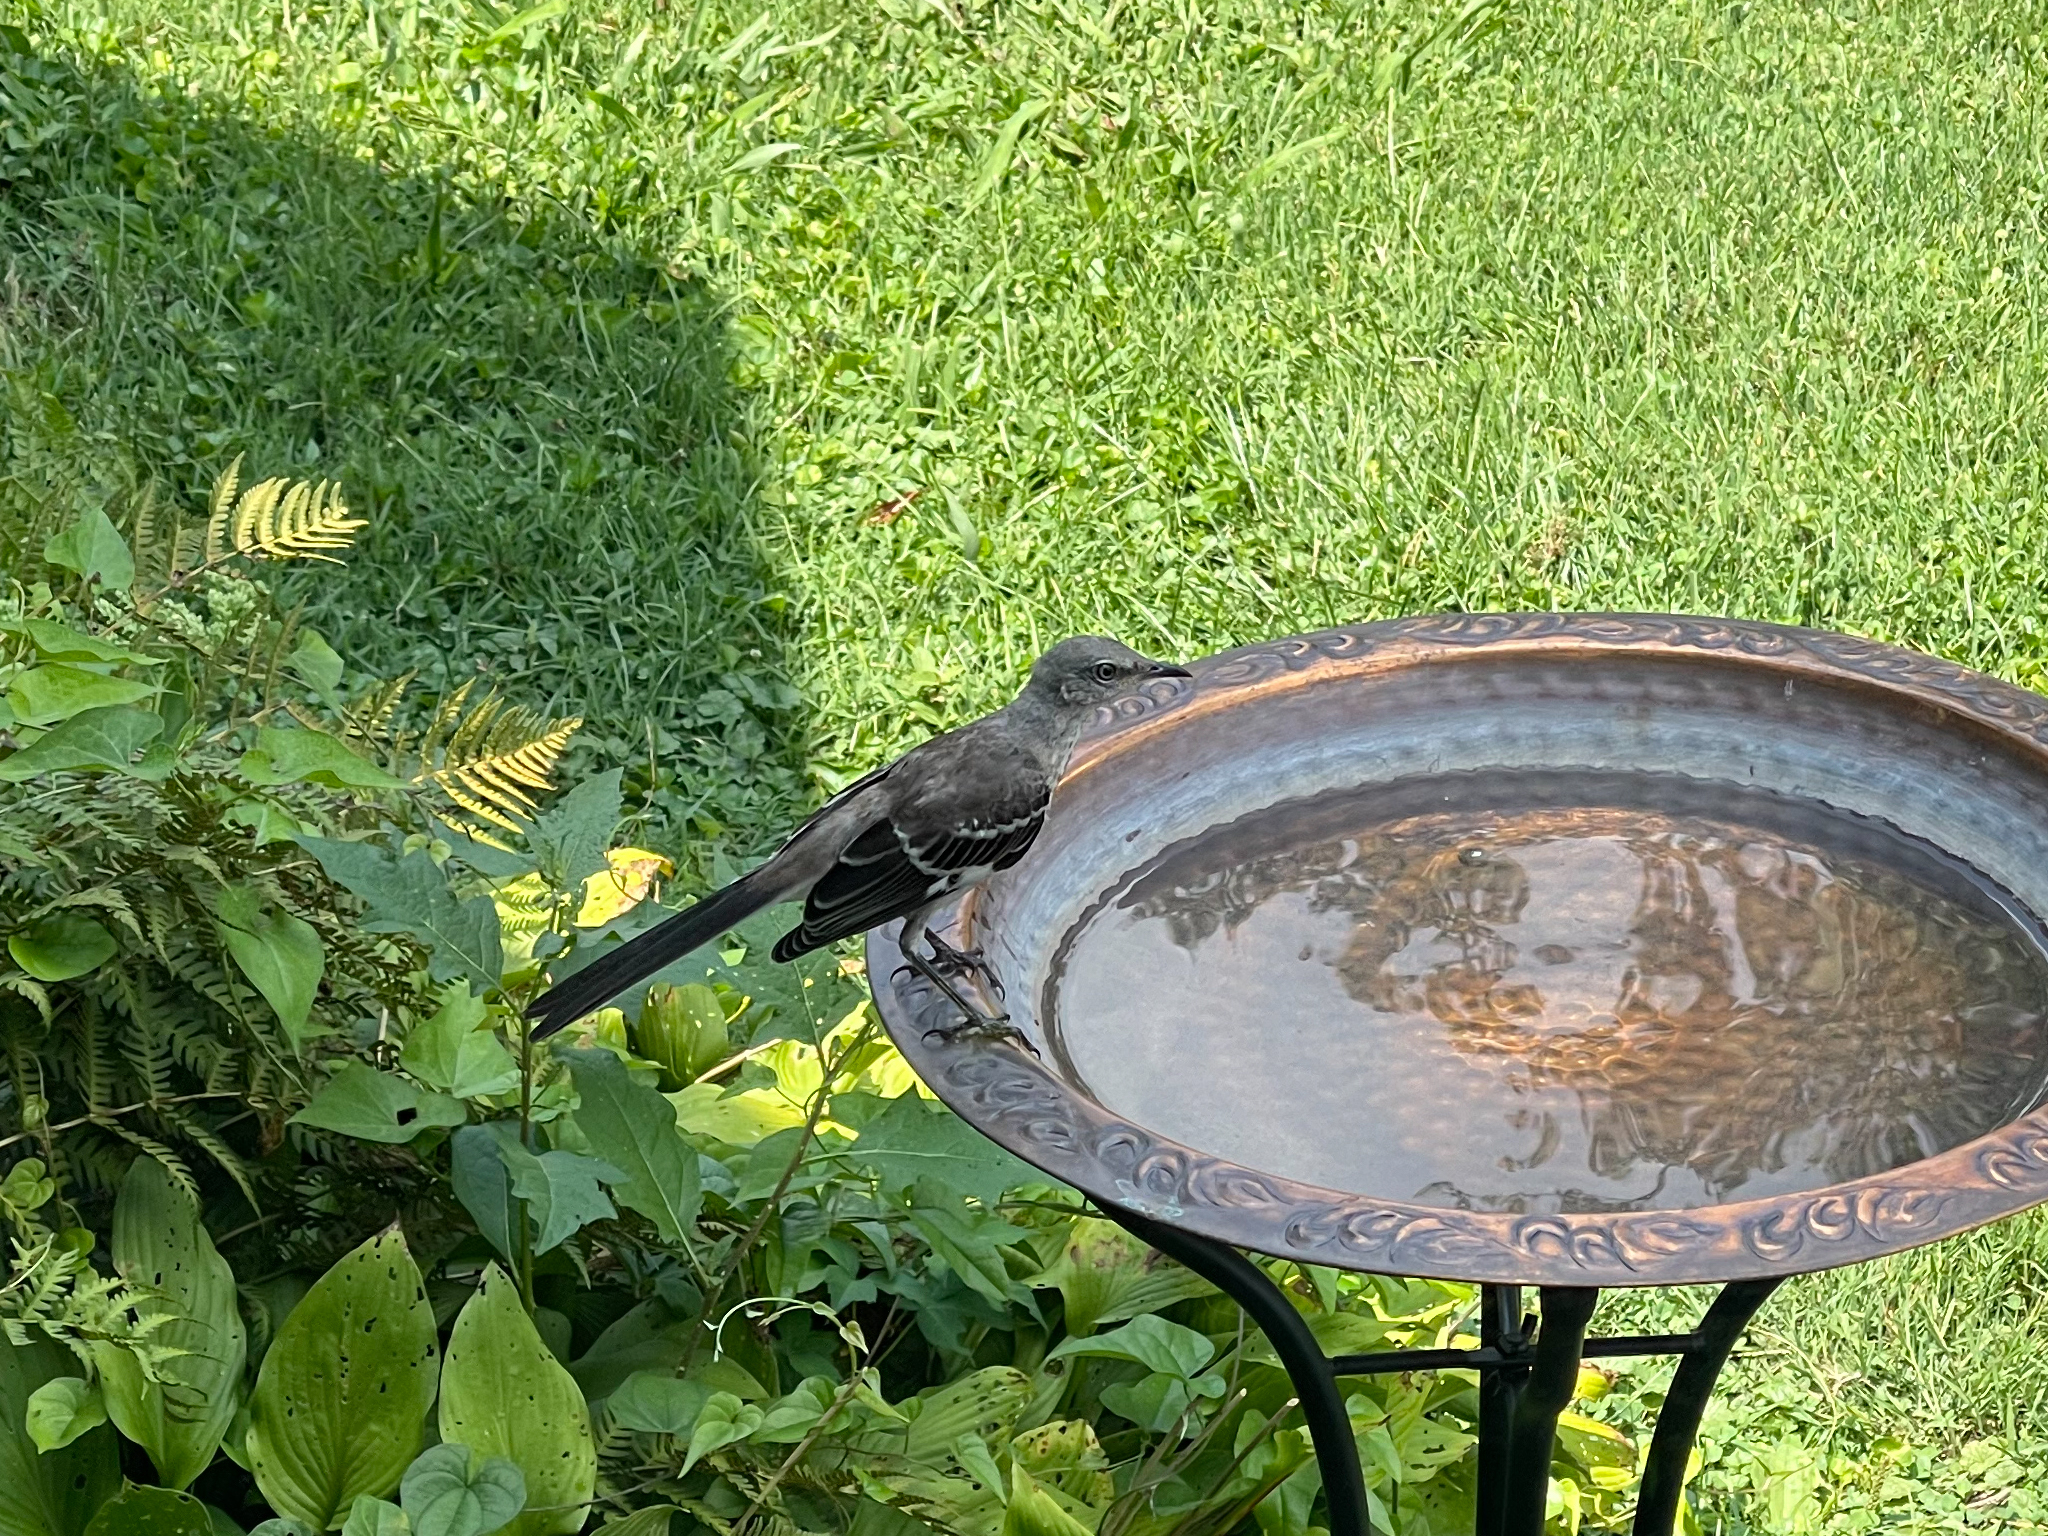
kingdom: Animalia
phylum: Chordata
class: Aves
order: Passeriformes
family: Mimidae
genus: Mimus
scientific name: Mimus polyglottos
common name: Northern mockingbird
